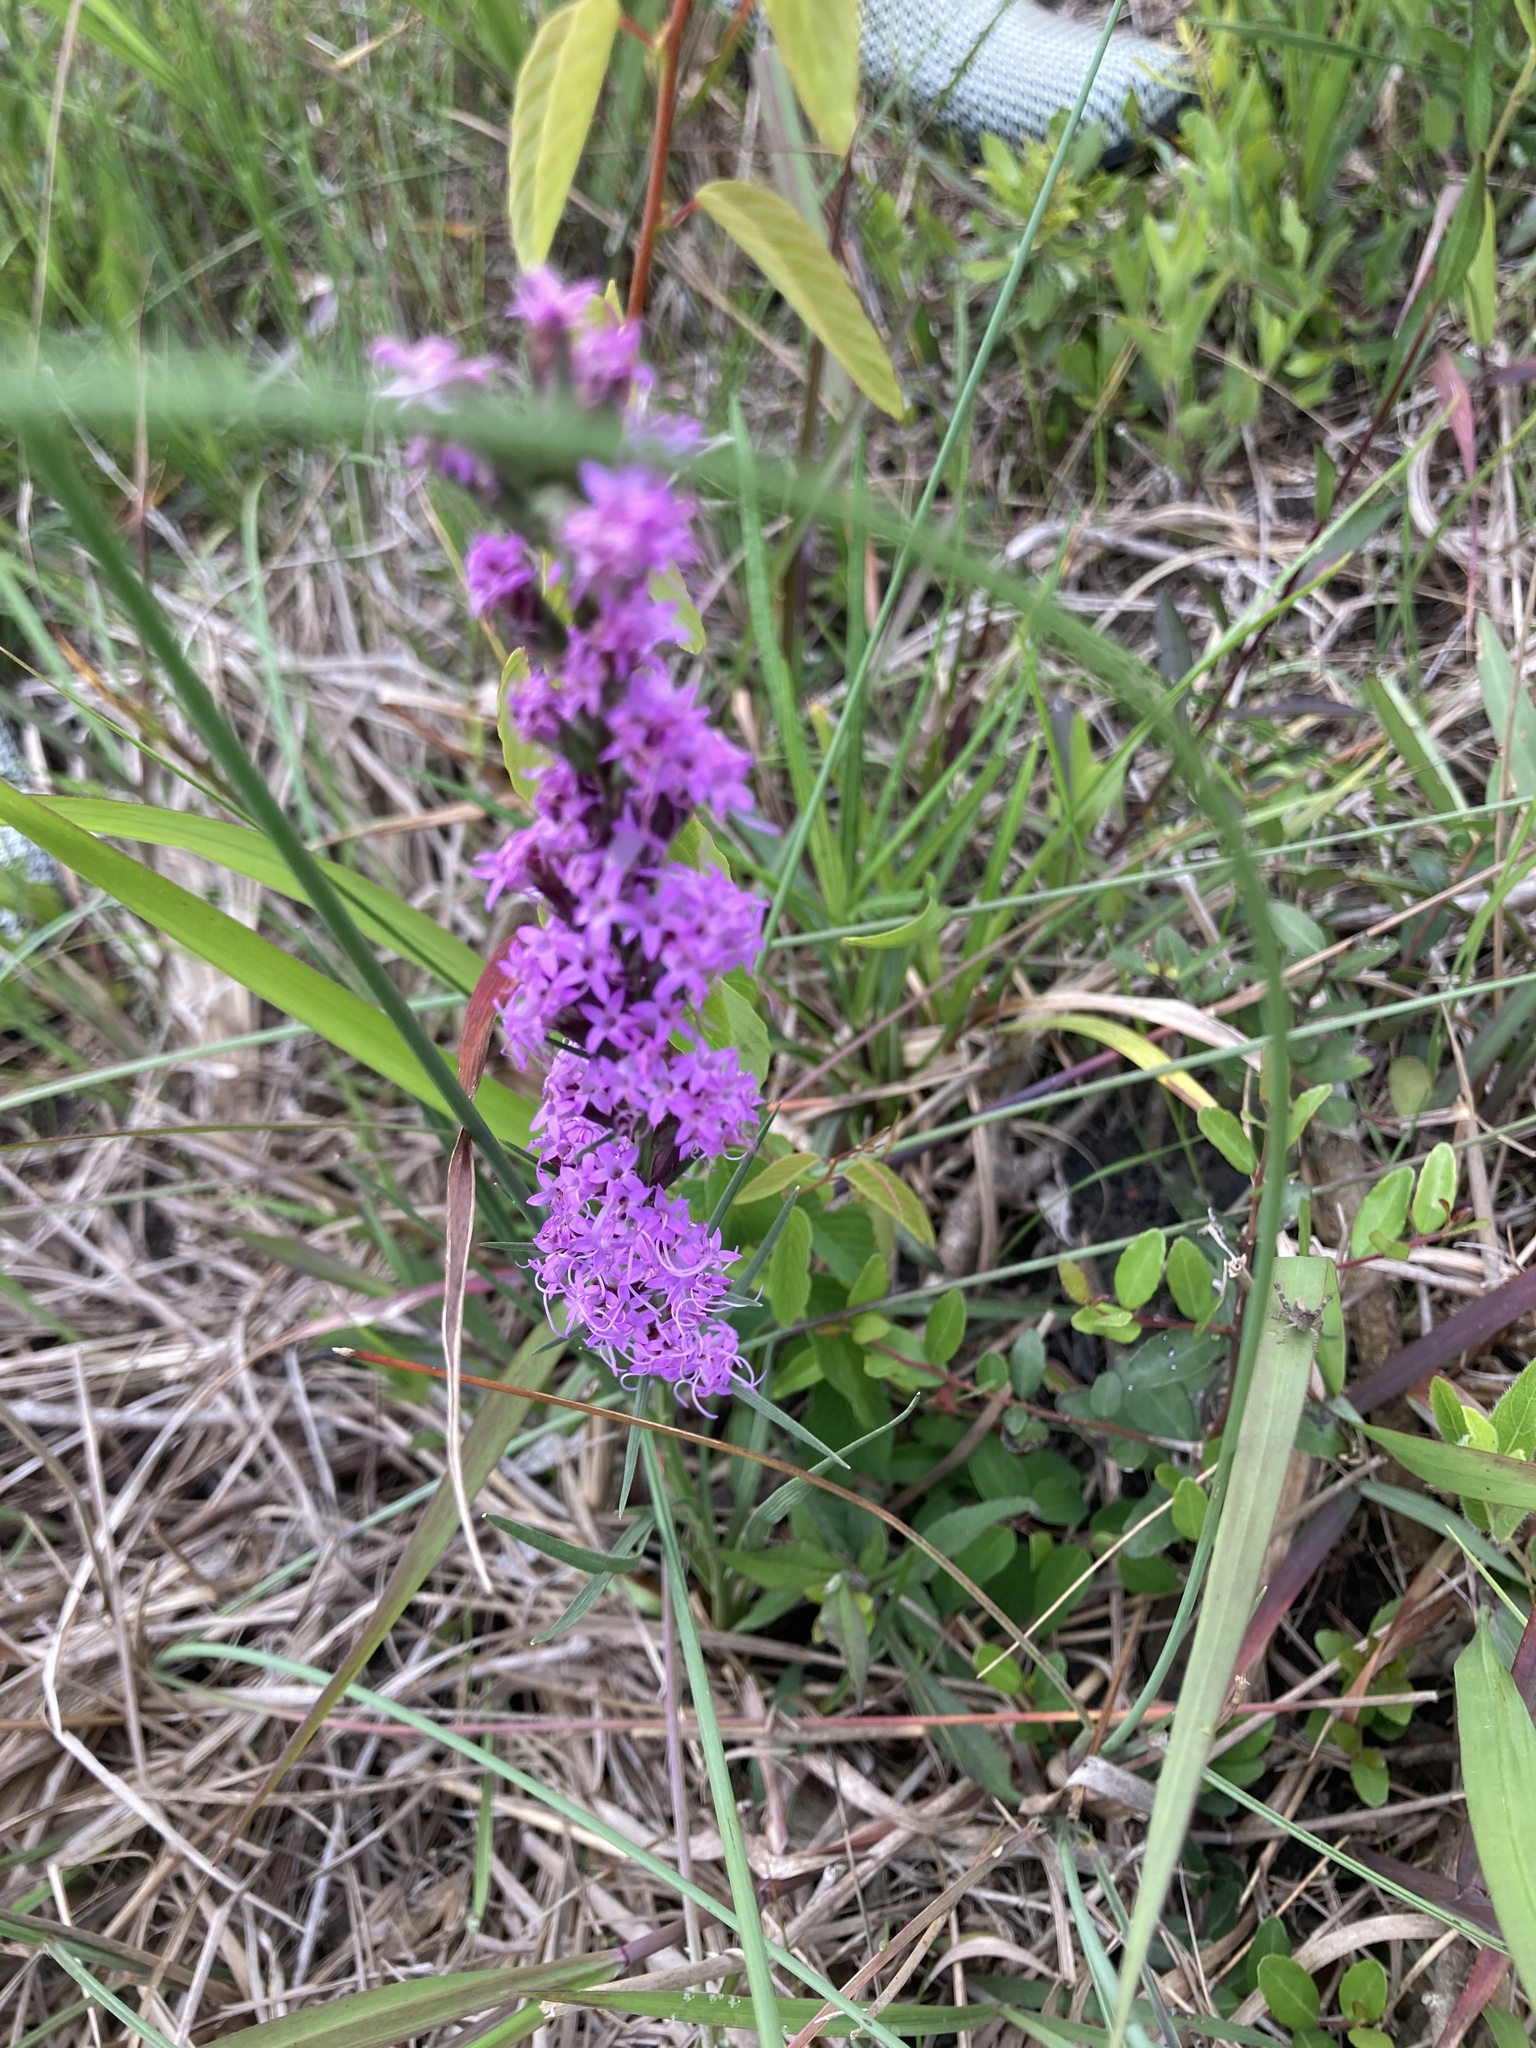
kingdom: Plantae
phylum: Tracheophyta
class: Magnoliopsida
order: Asterales
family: Asteraceae
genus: Liatris
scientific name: Liatris acidota
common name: Gulf coast gayfeather
